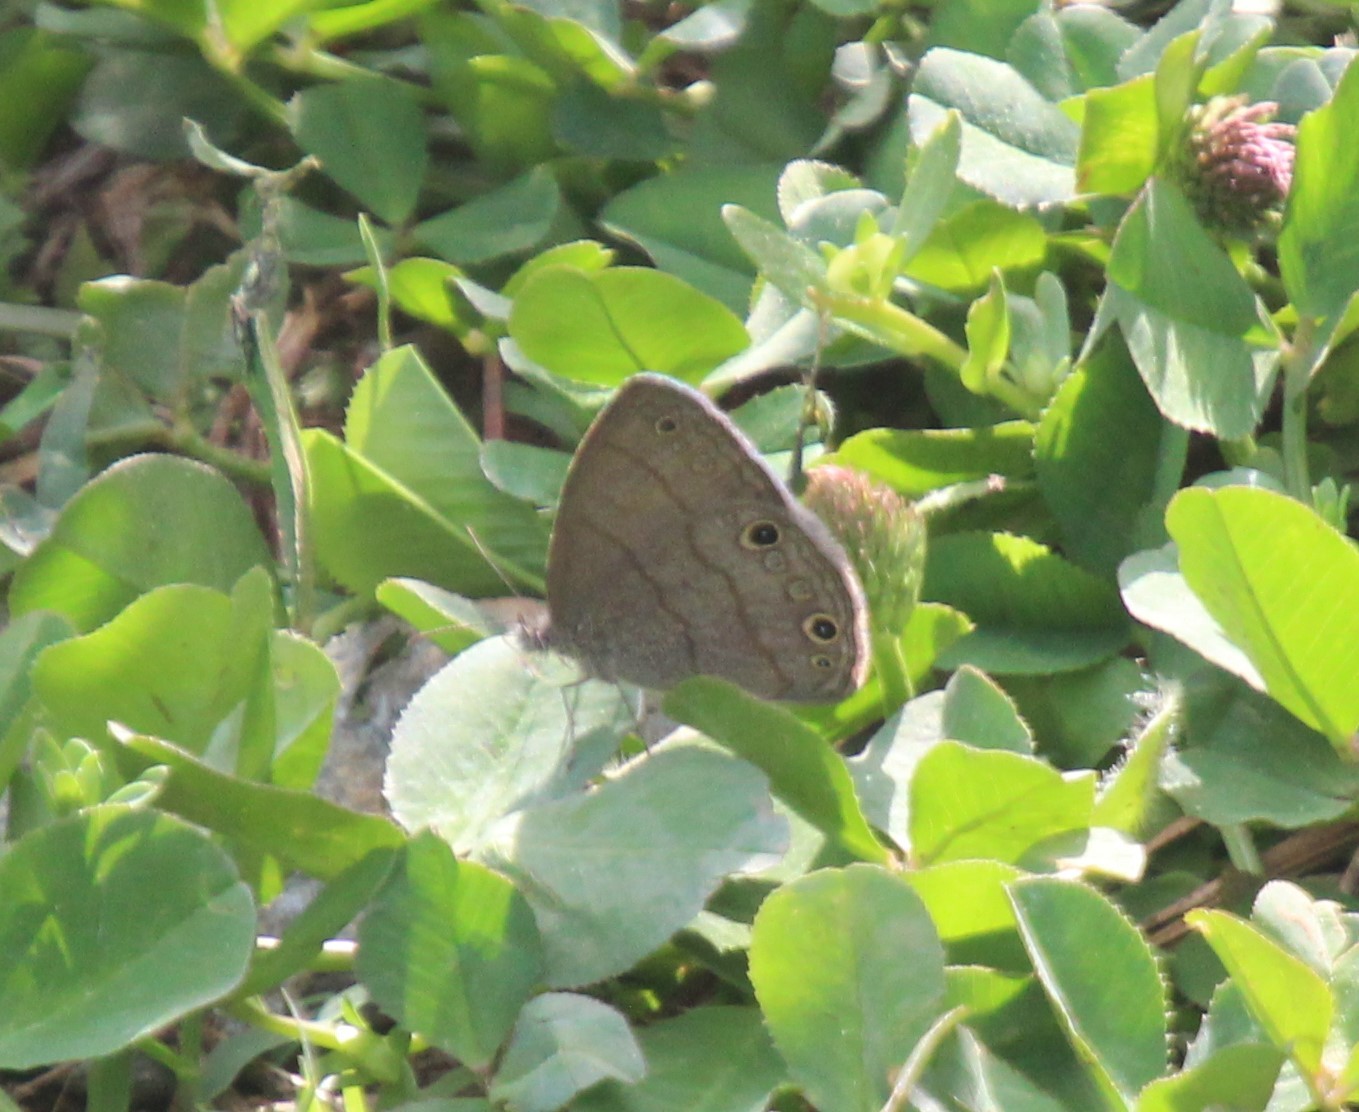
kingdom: Animalia
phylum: Arthropoda
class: Insecta
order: Lepidoptera
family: Nymphalidae
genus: Hermeuptychia
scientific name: Hermeuptychia hermes
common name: Hermes satyr
